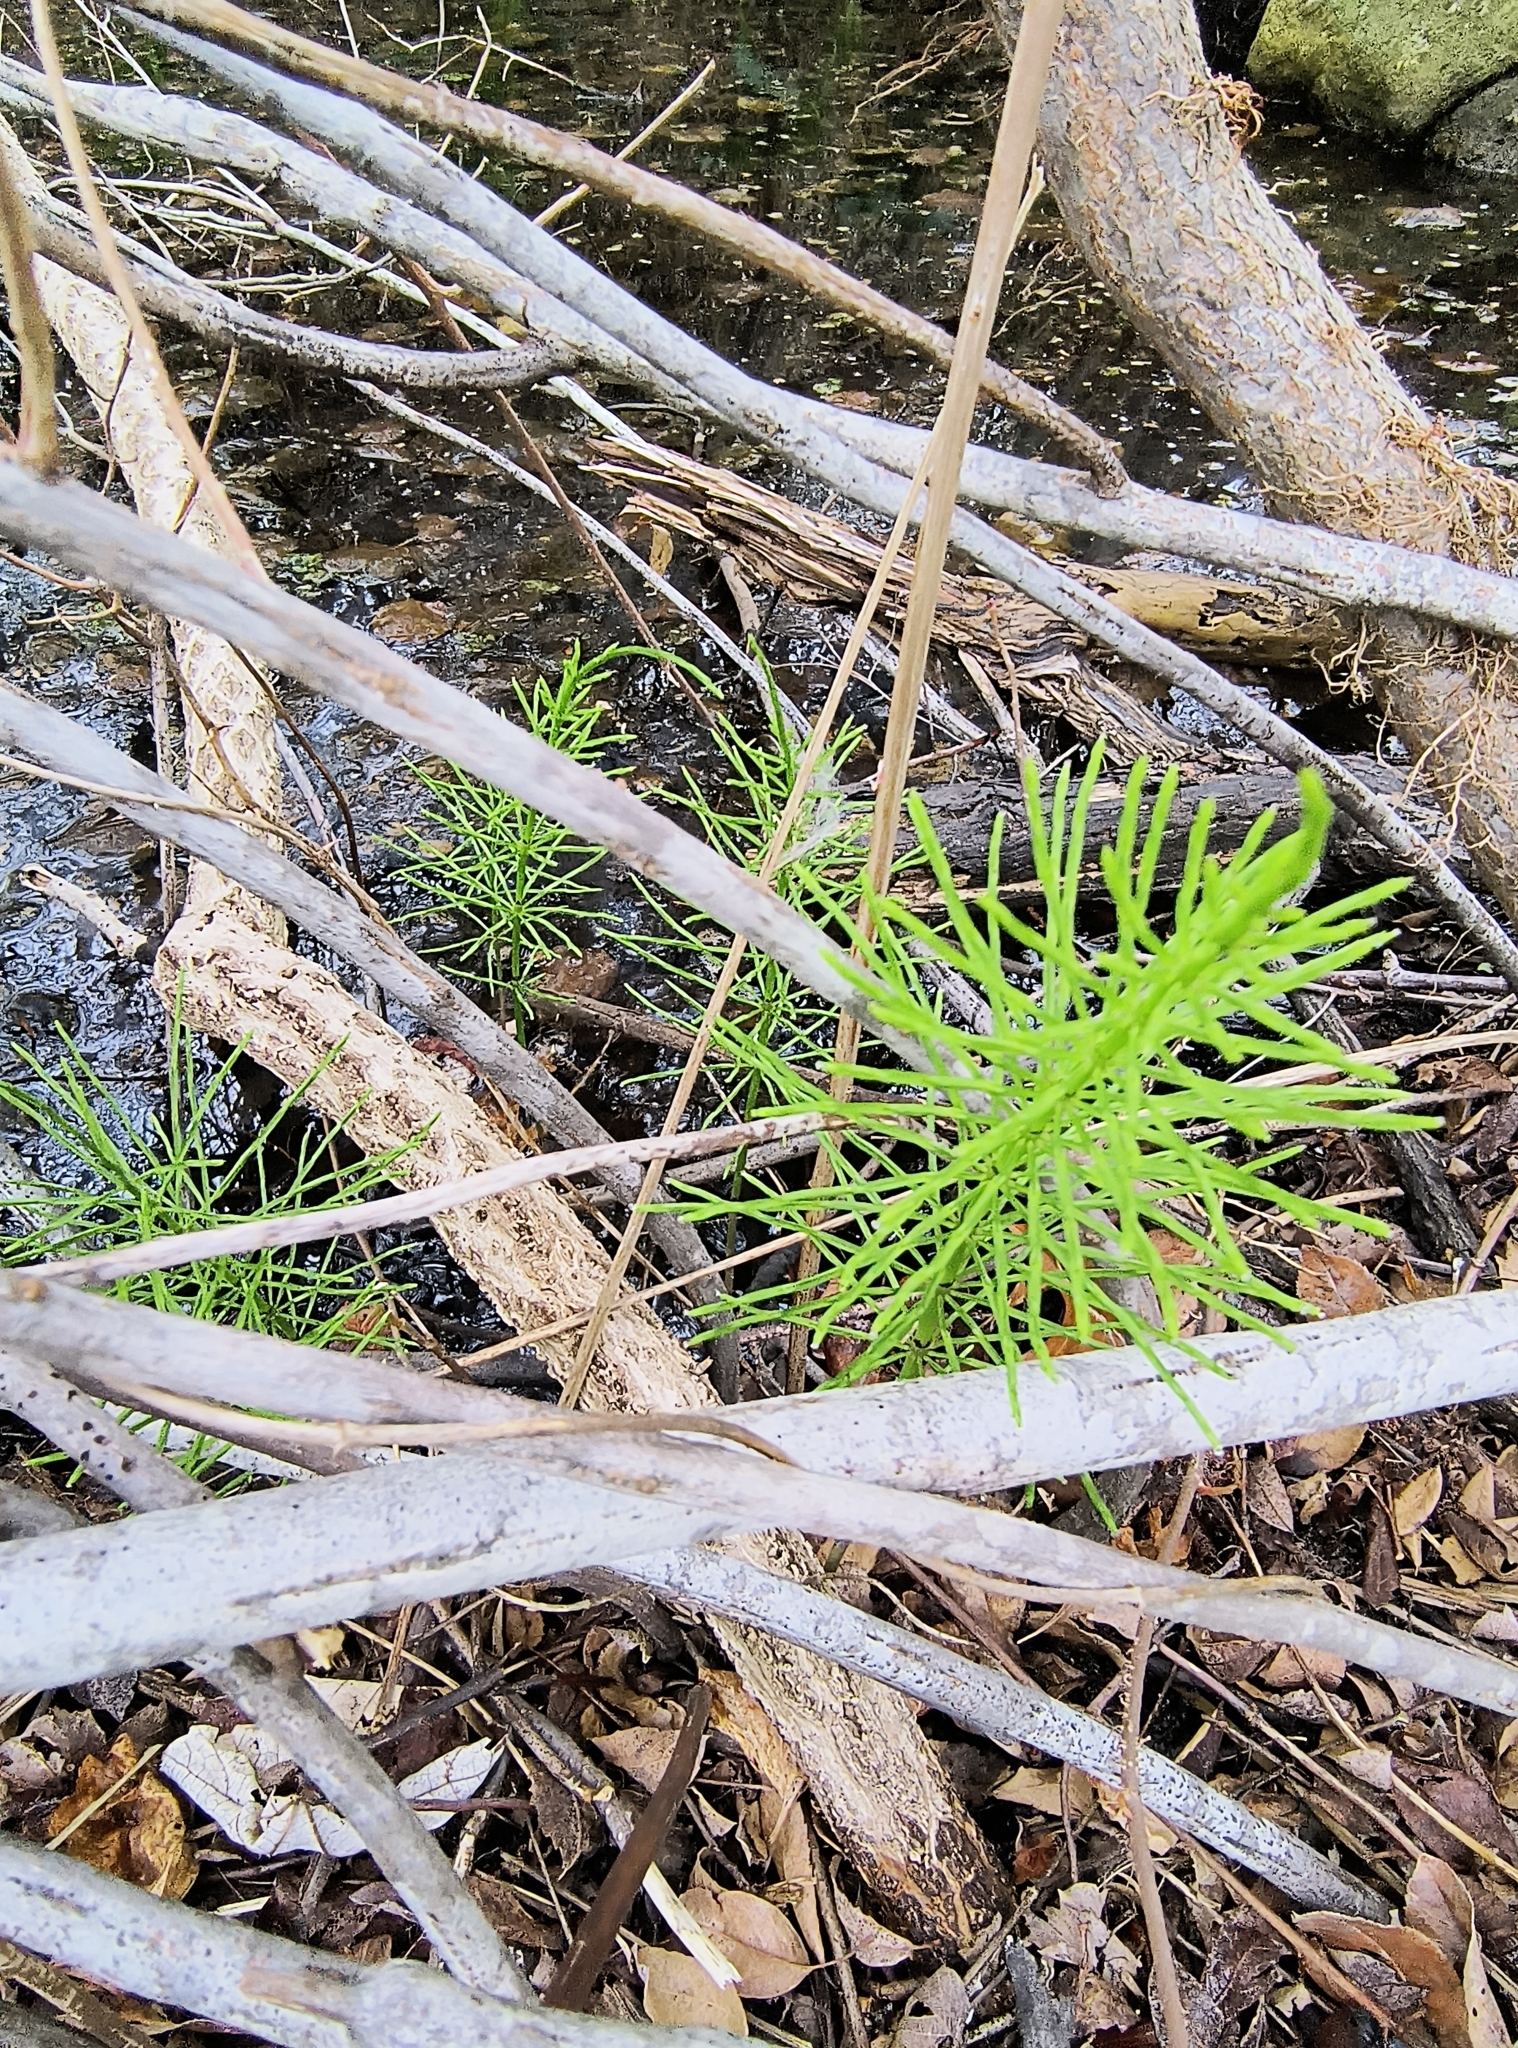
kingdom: Plantae
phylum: Tracheophyta
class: Polypodiopsida
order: Equisetales
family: Equisetaceae
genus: Equisetum
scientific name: Equisetum arvense
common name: Field horsetail
